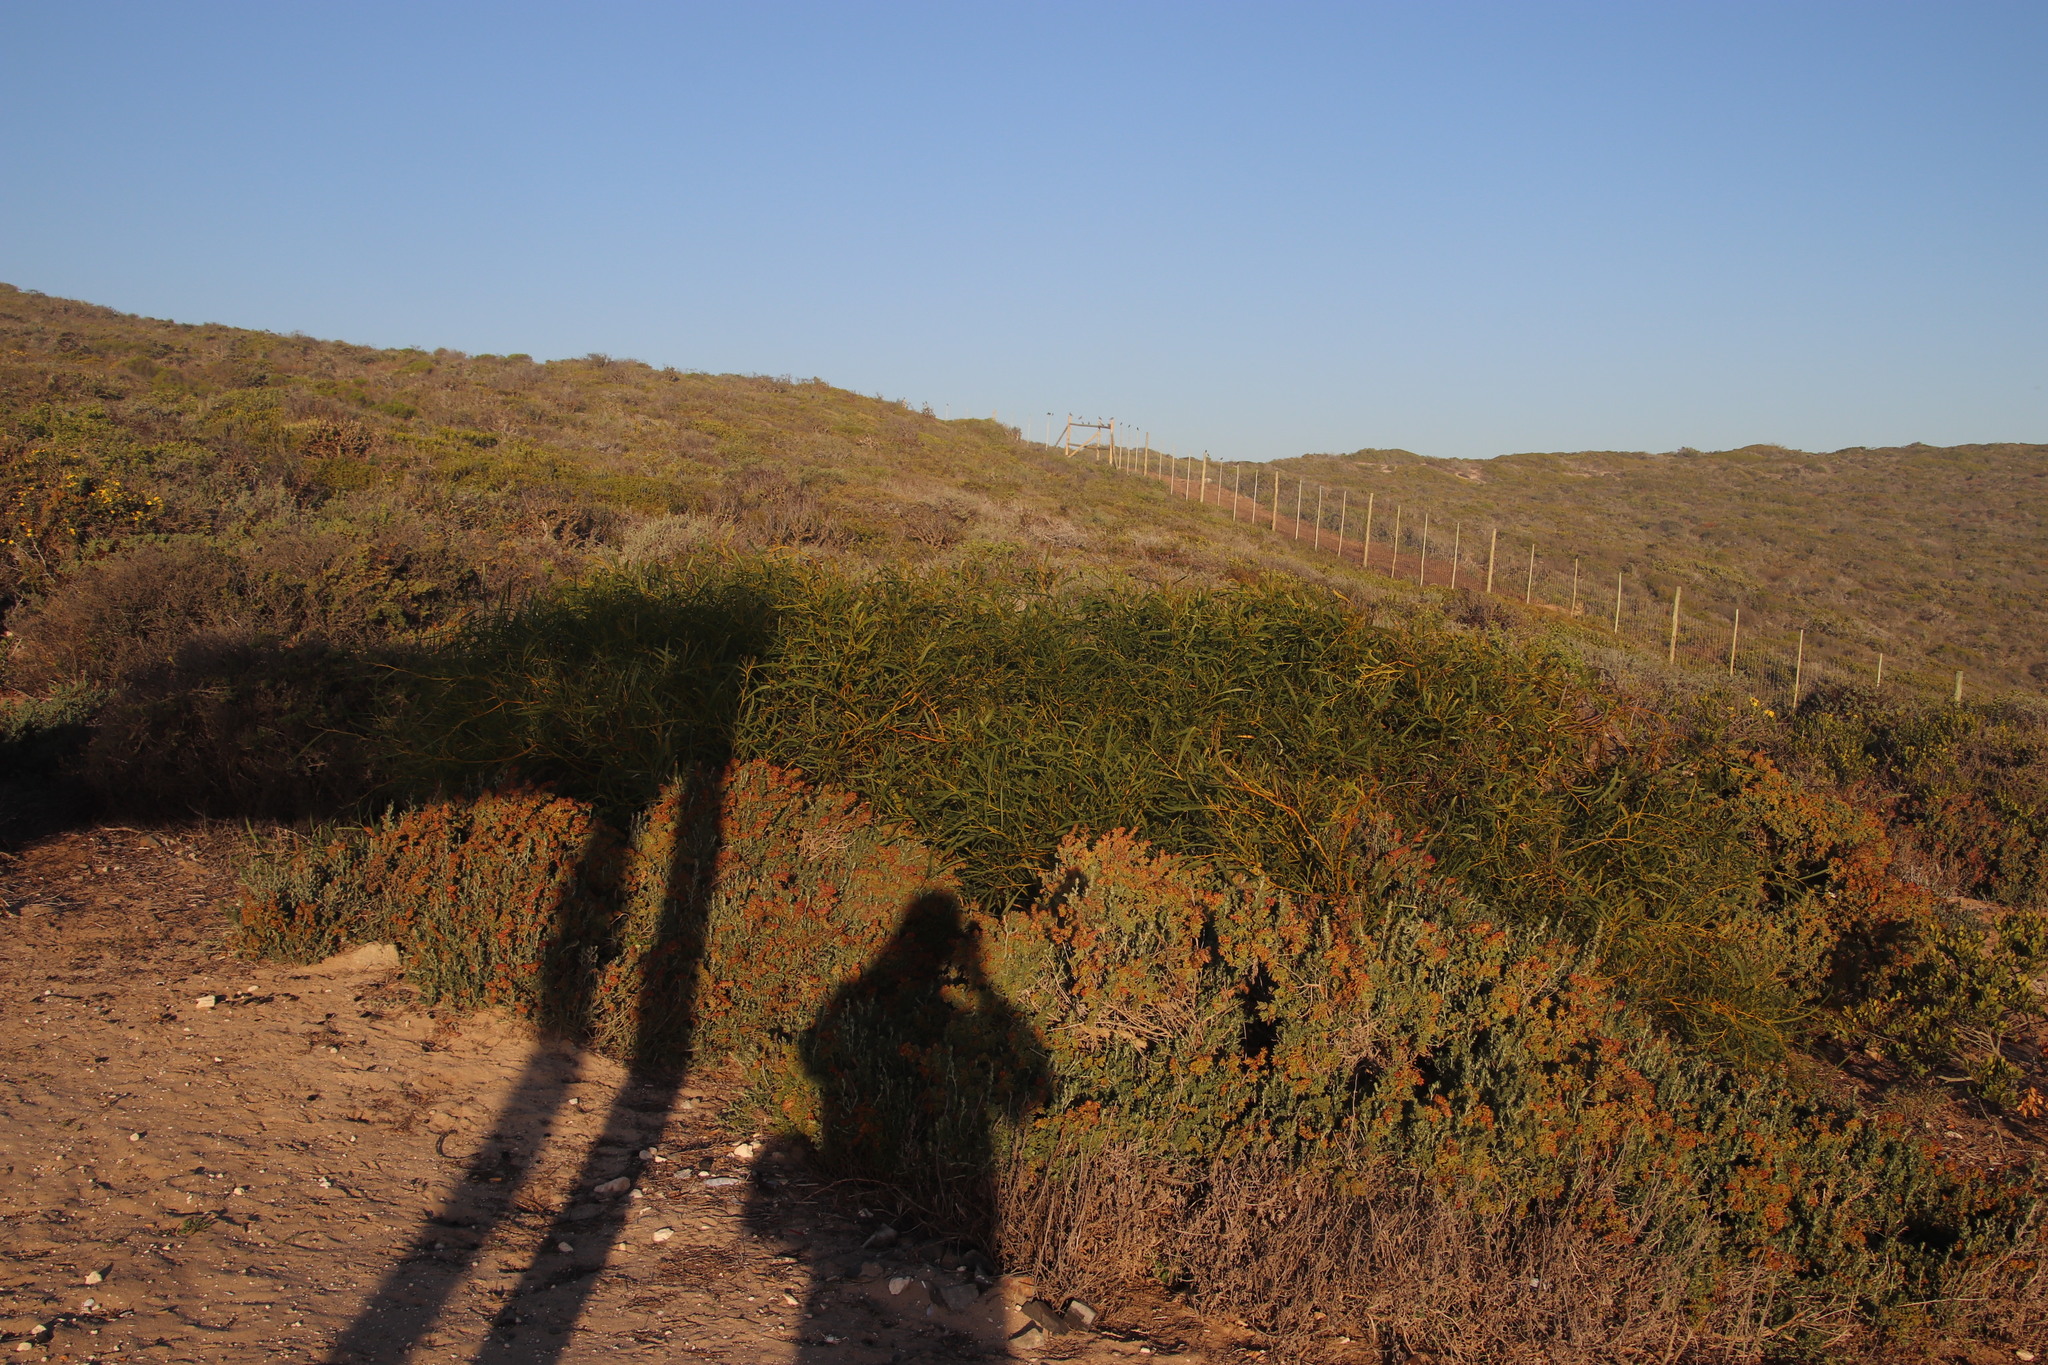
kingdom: Plantae
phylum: Tracheophyta
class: Magnoliopsida
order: Fabales
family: Fabaceae
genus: Acacia
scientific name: Acacia saligna
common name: Orange wattle
